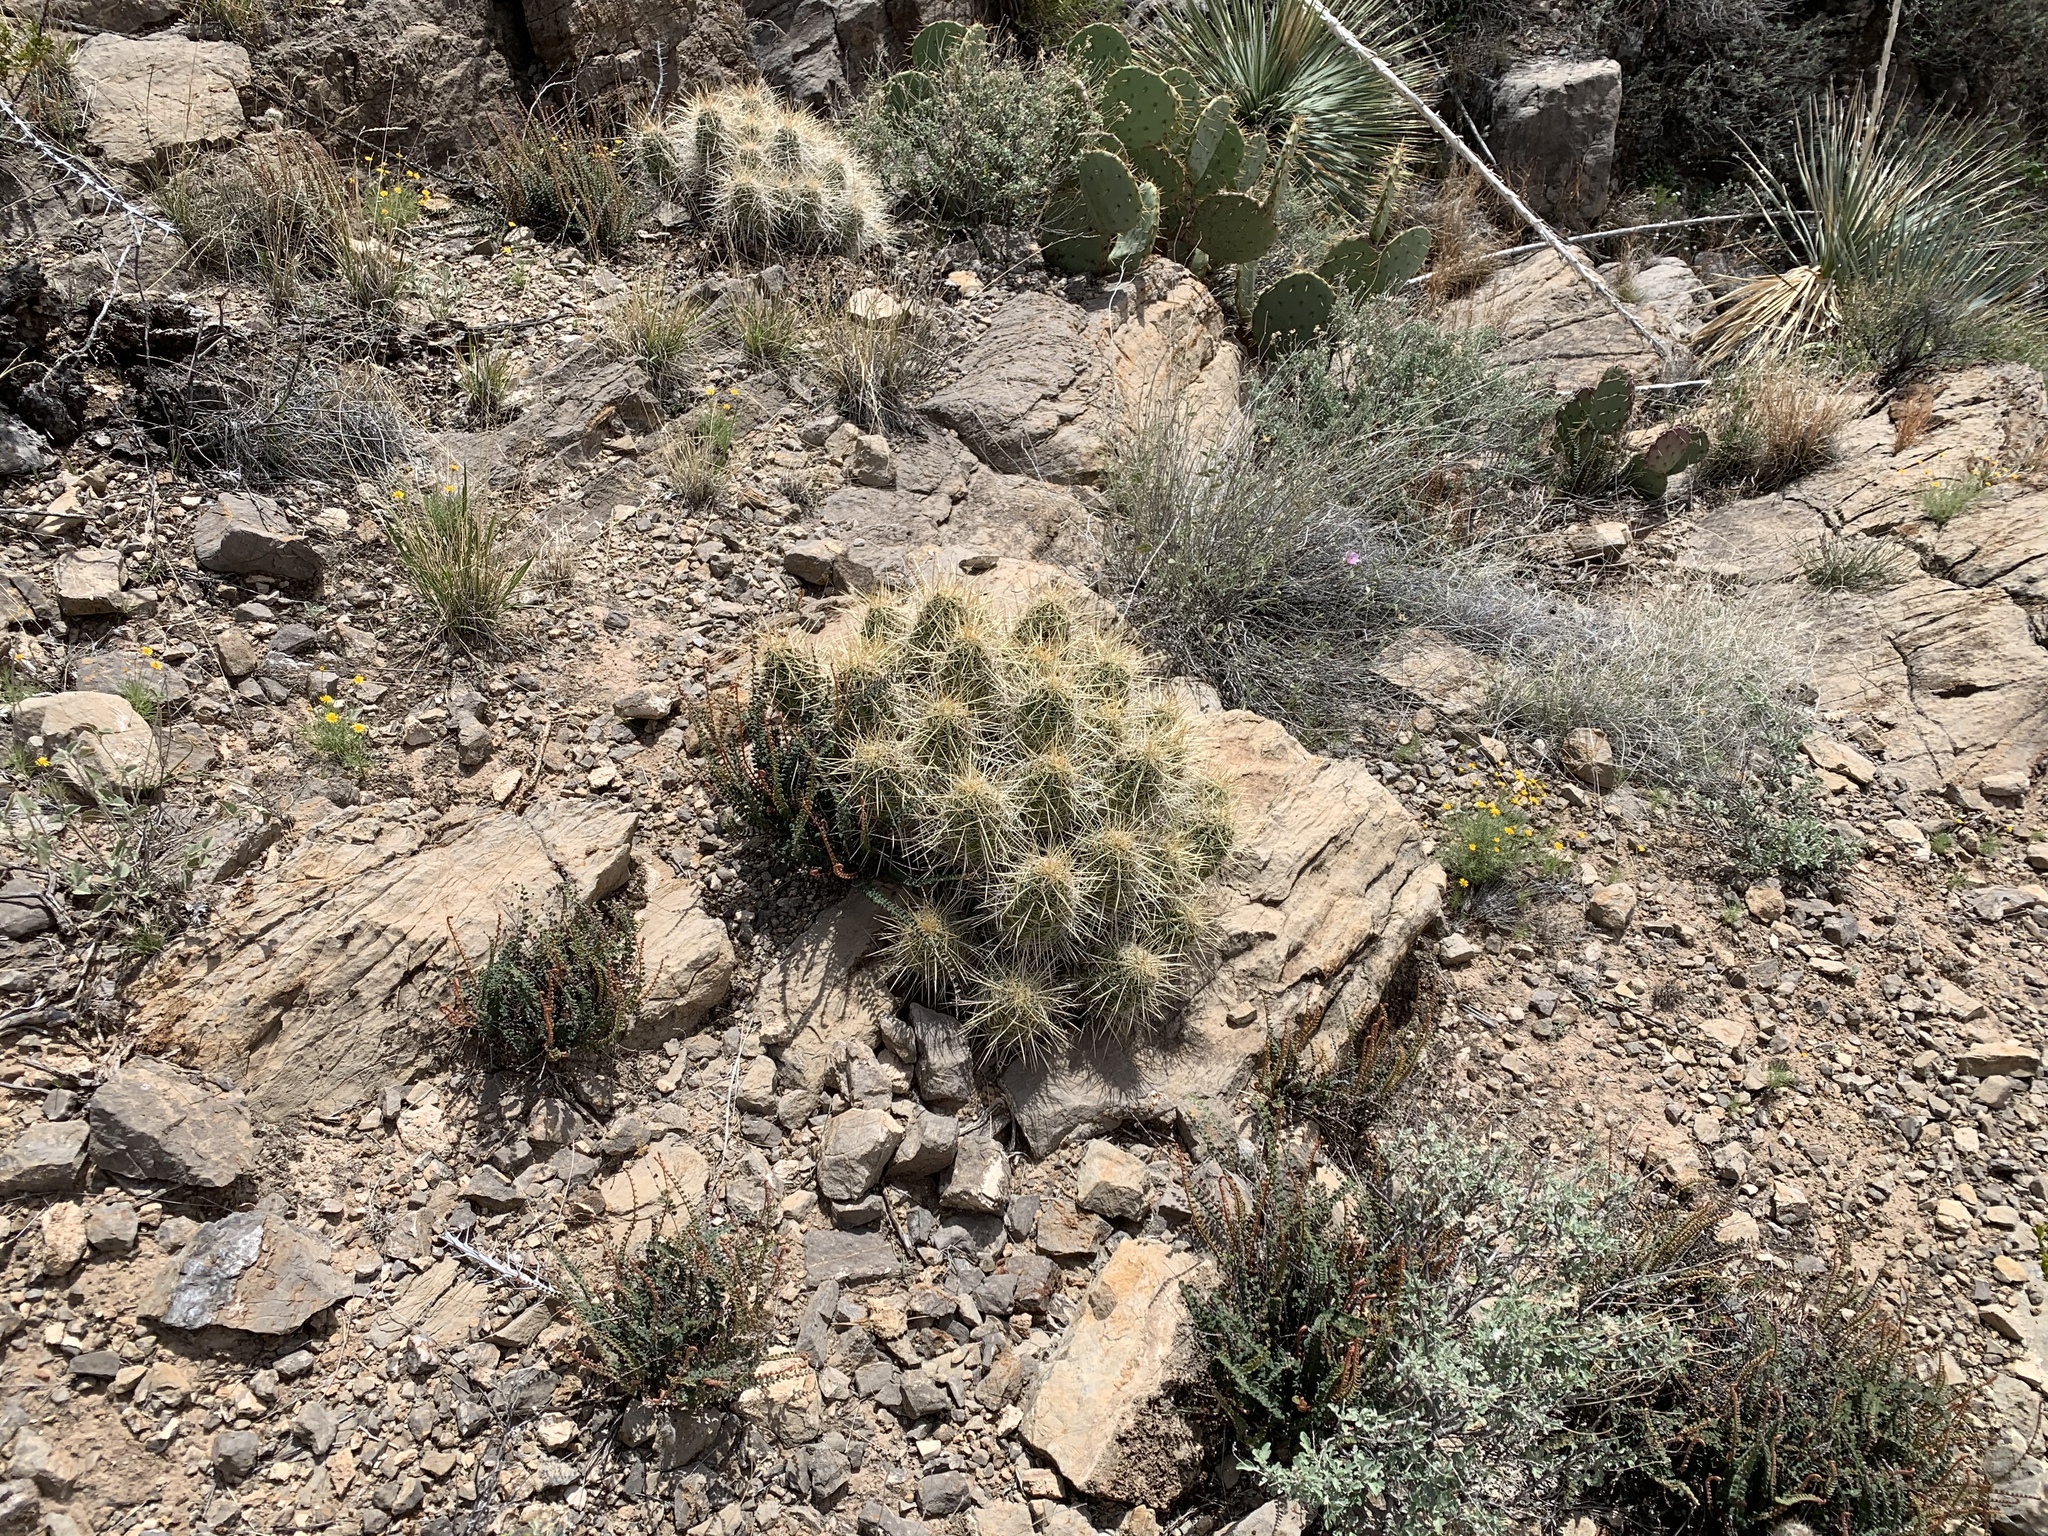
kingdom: Plantae
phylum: Tracheophyta
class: Magnoliopsida
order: Caryophyllales
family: Cactaceae
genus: Echinocereus
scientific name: Echinocereus stramineus
